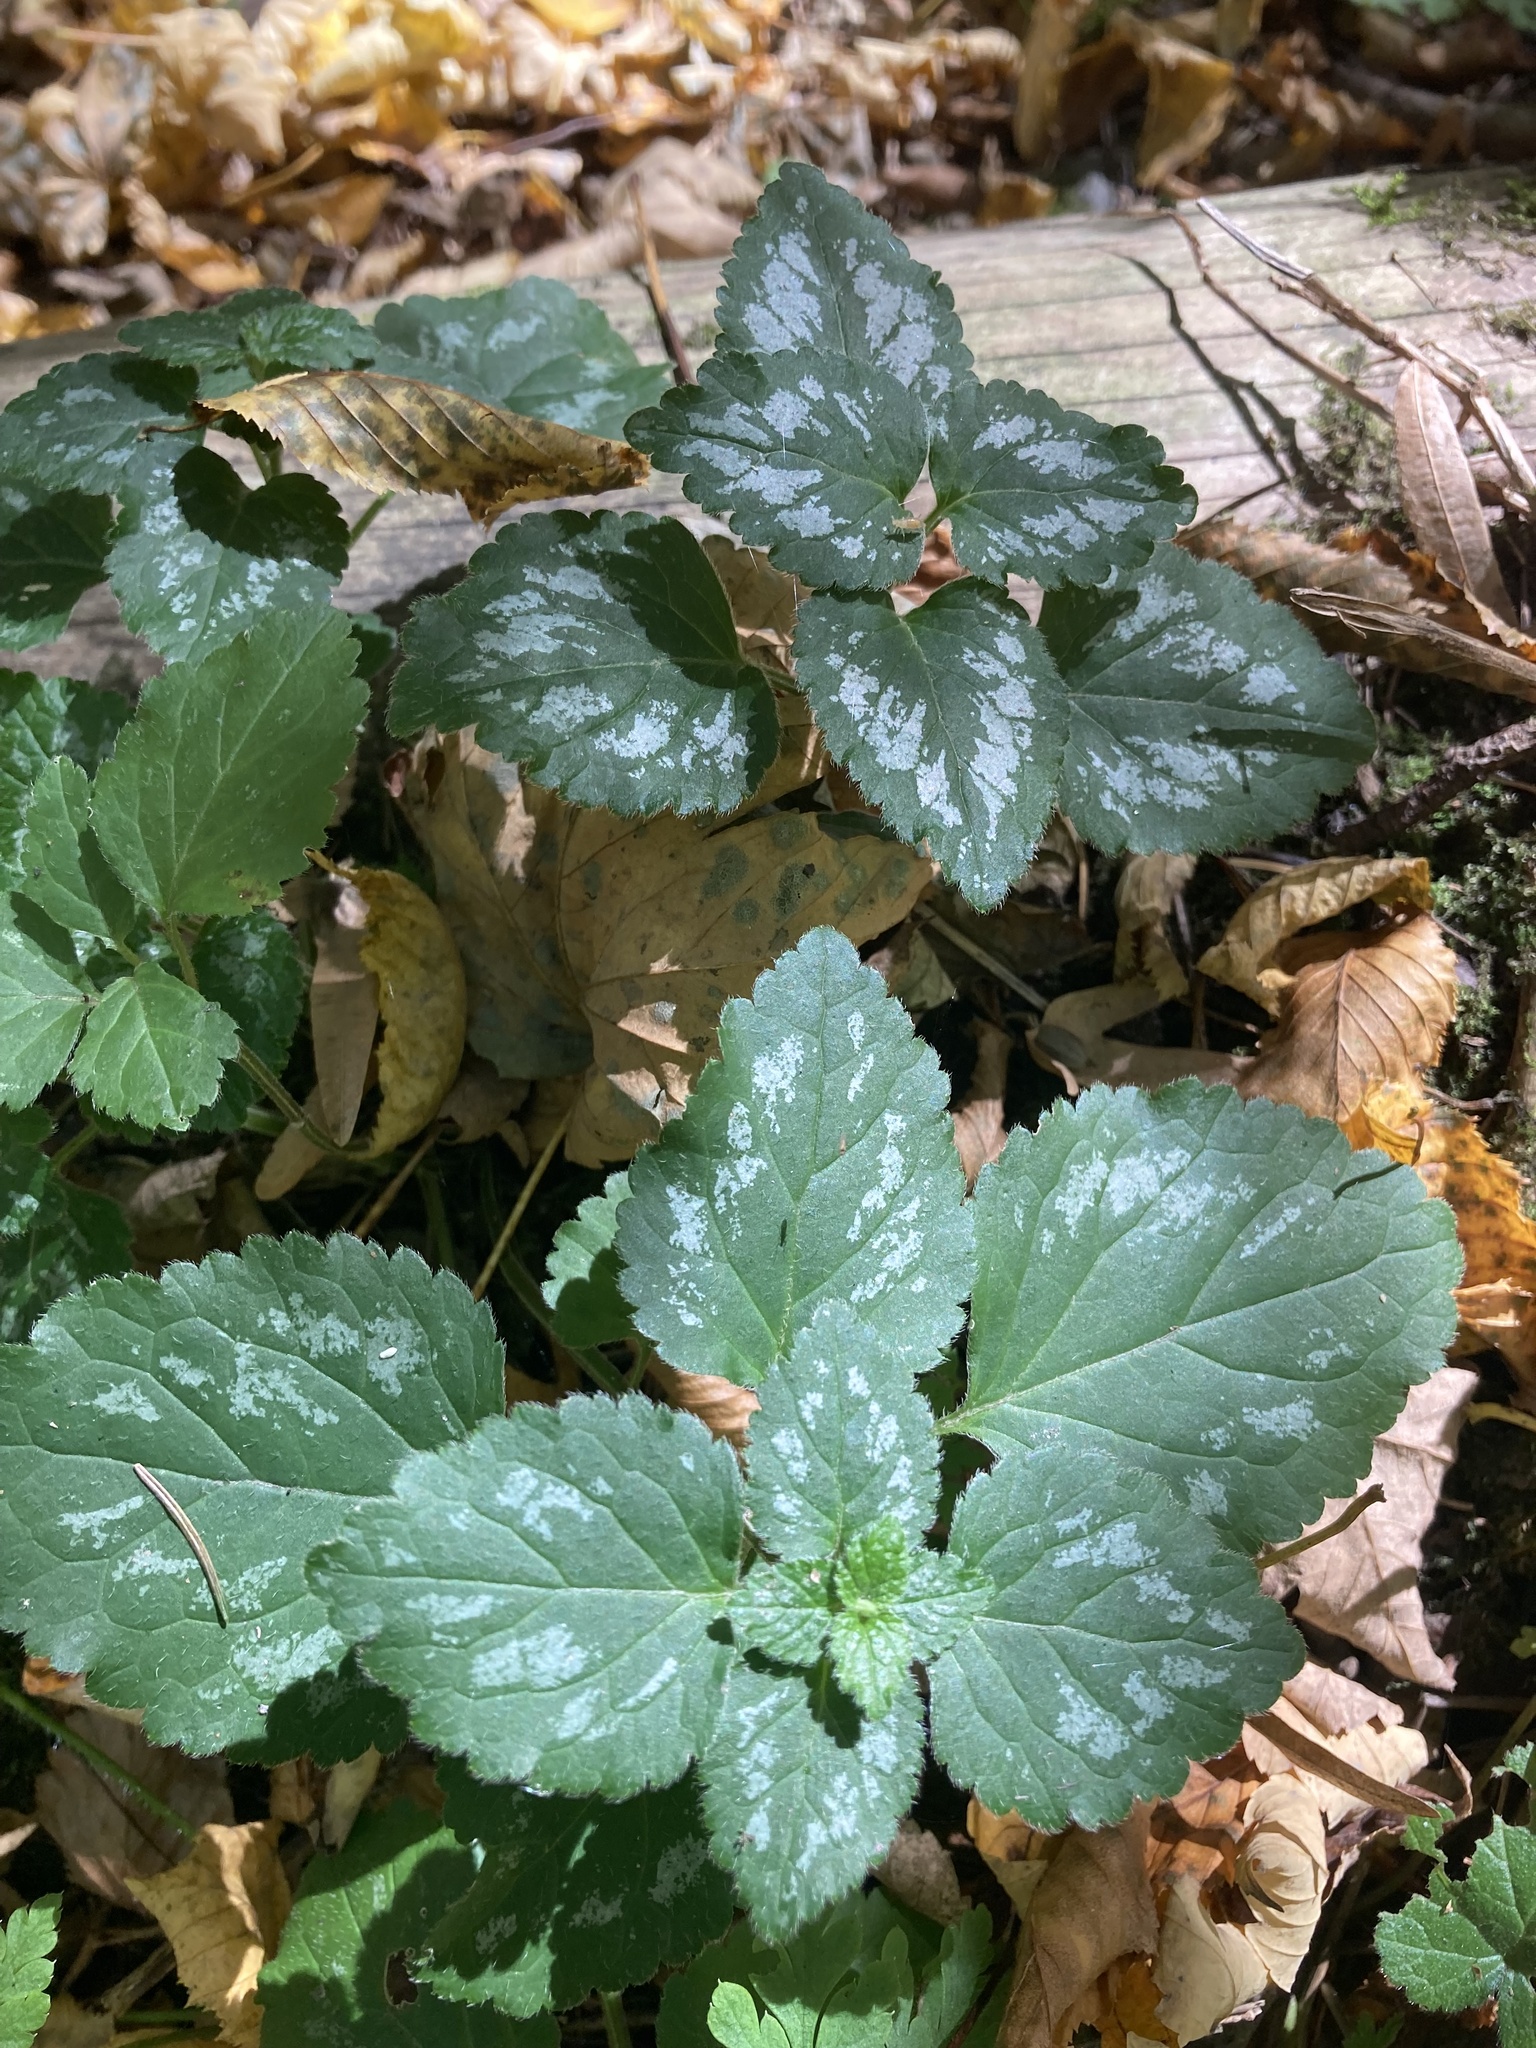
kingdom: Plantae
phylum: Tracheophyta
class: Magnoliopsida
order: Lamiales
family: Lamiaceae
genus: Lamium
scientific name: Lamium galeobdolon
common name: Yellow archangel
